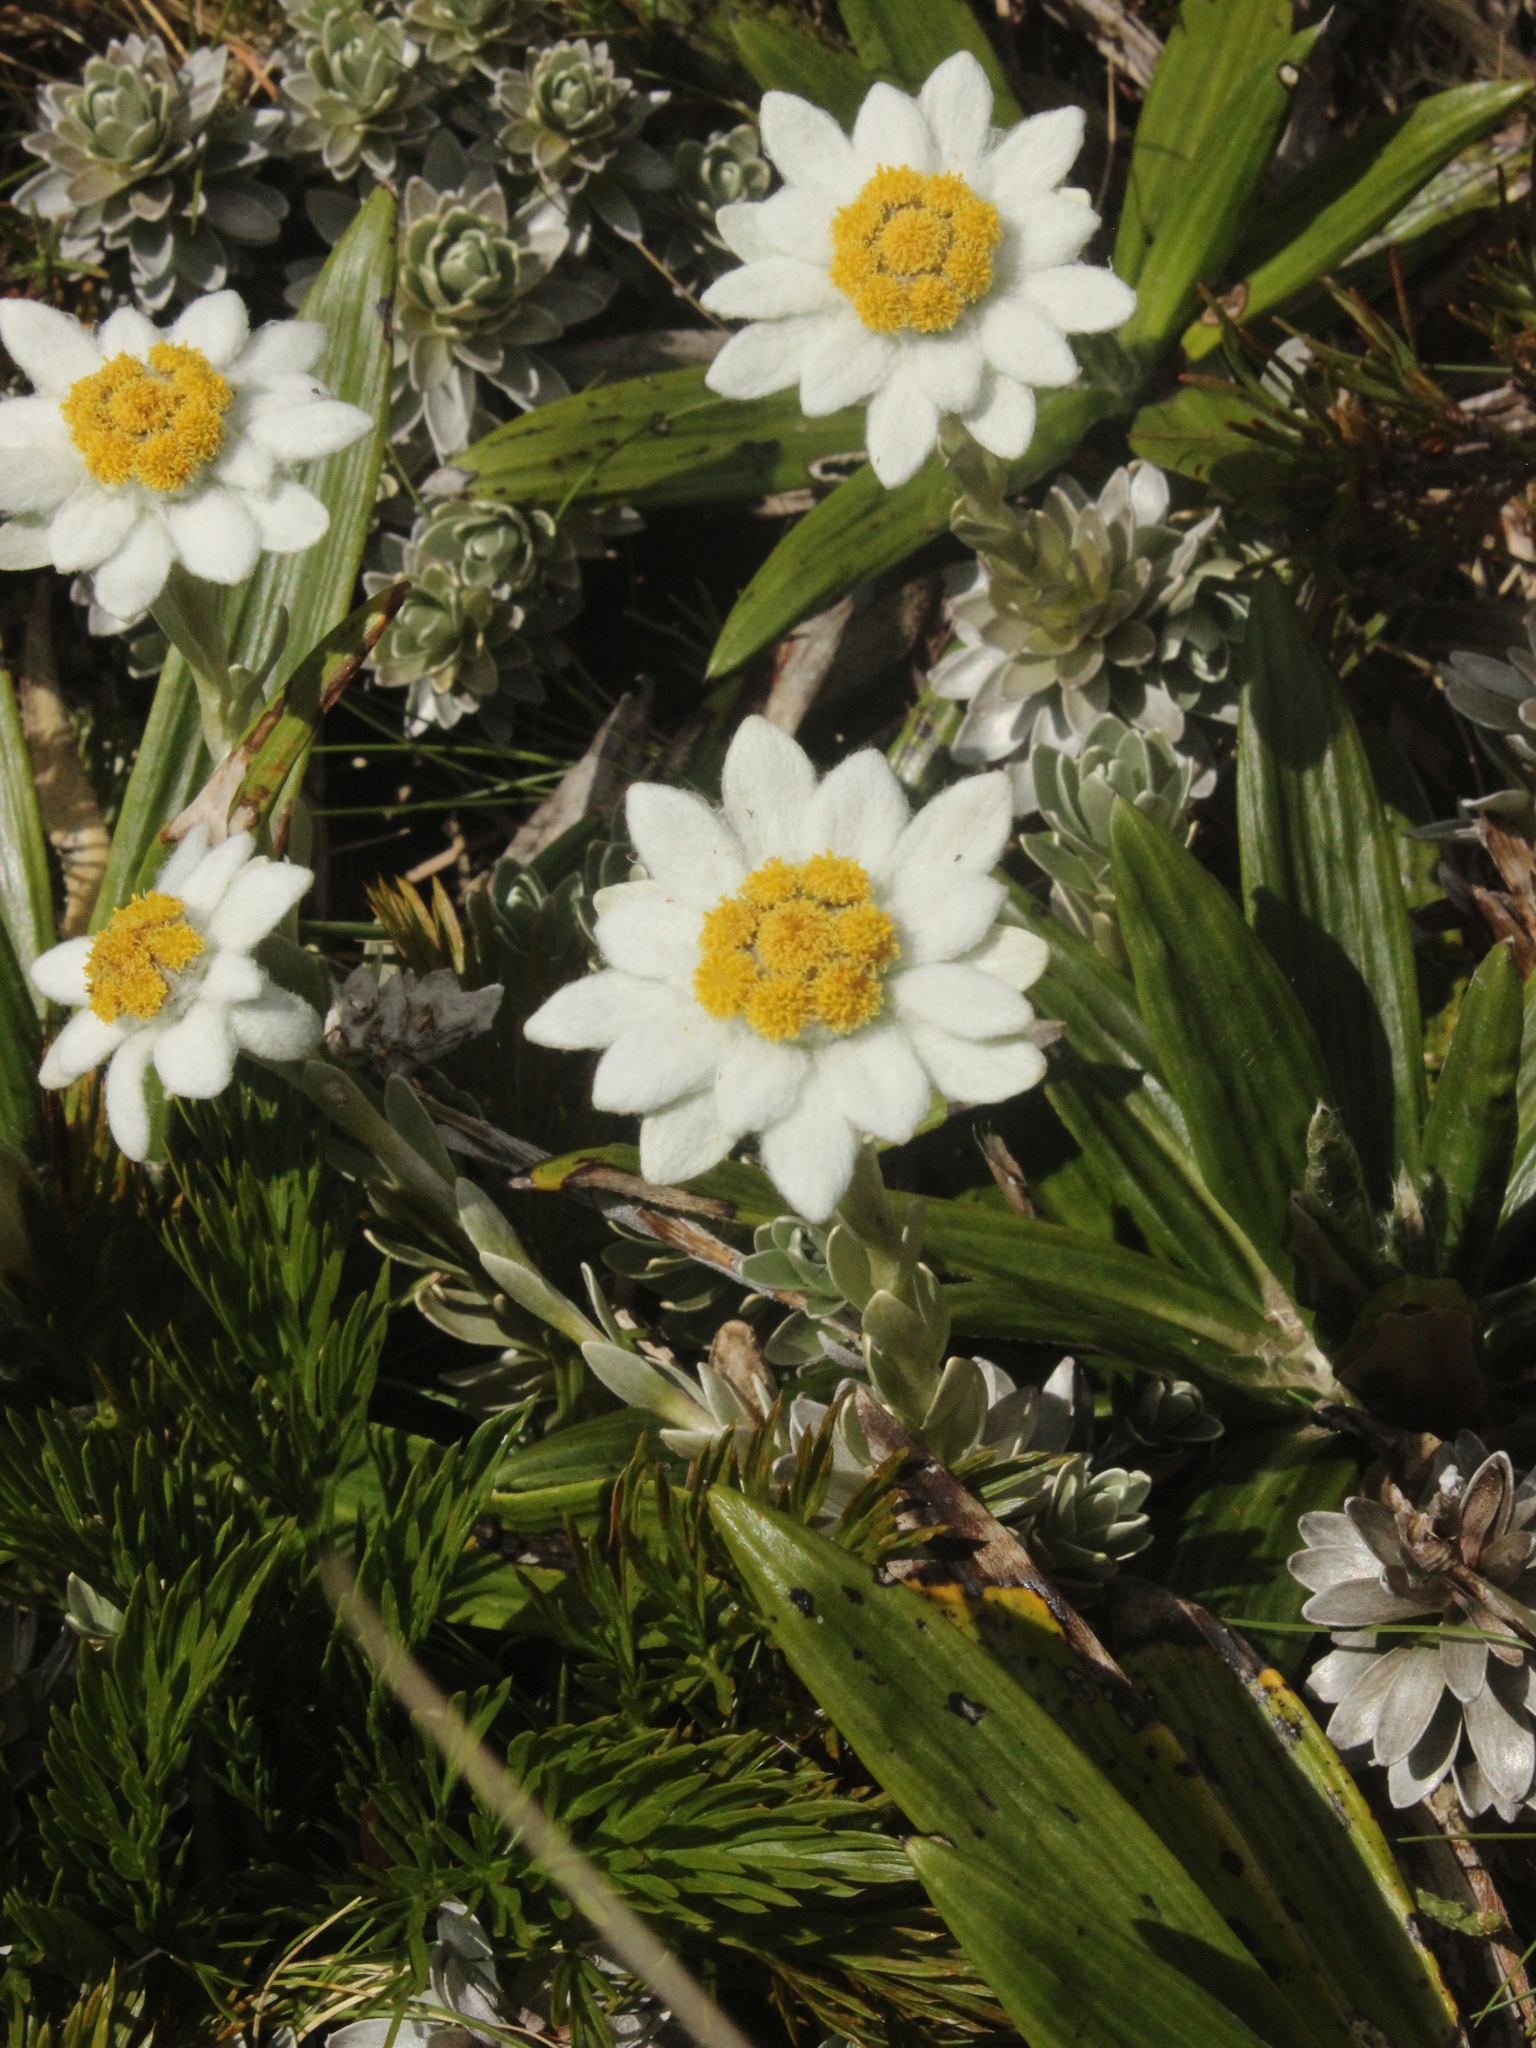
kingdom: Plantae
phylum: Tracheophyta
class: Magnoliopsida
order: Asterales
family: Asteraceae
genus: Leucogenes
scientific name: Leucogenes leontopodium
